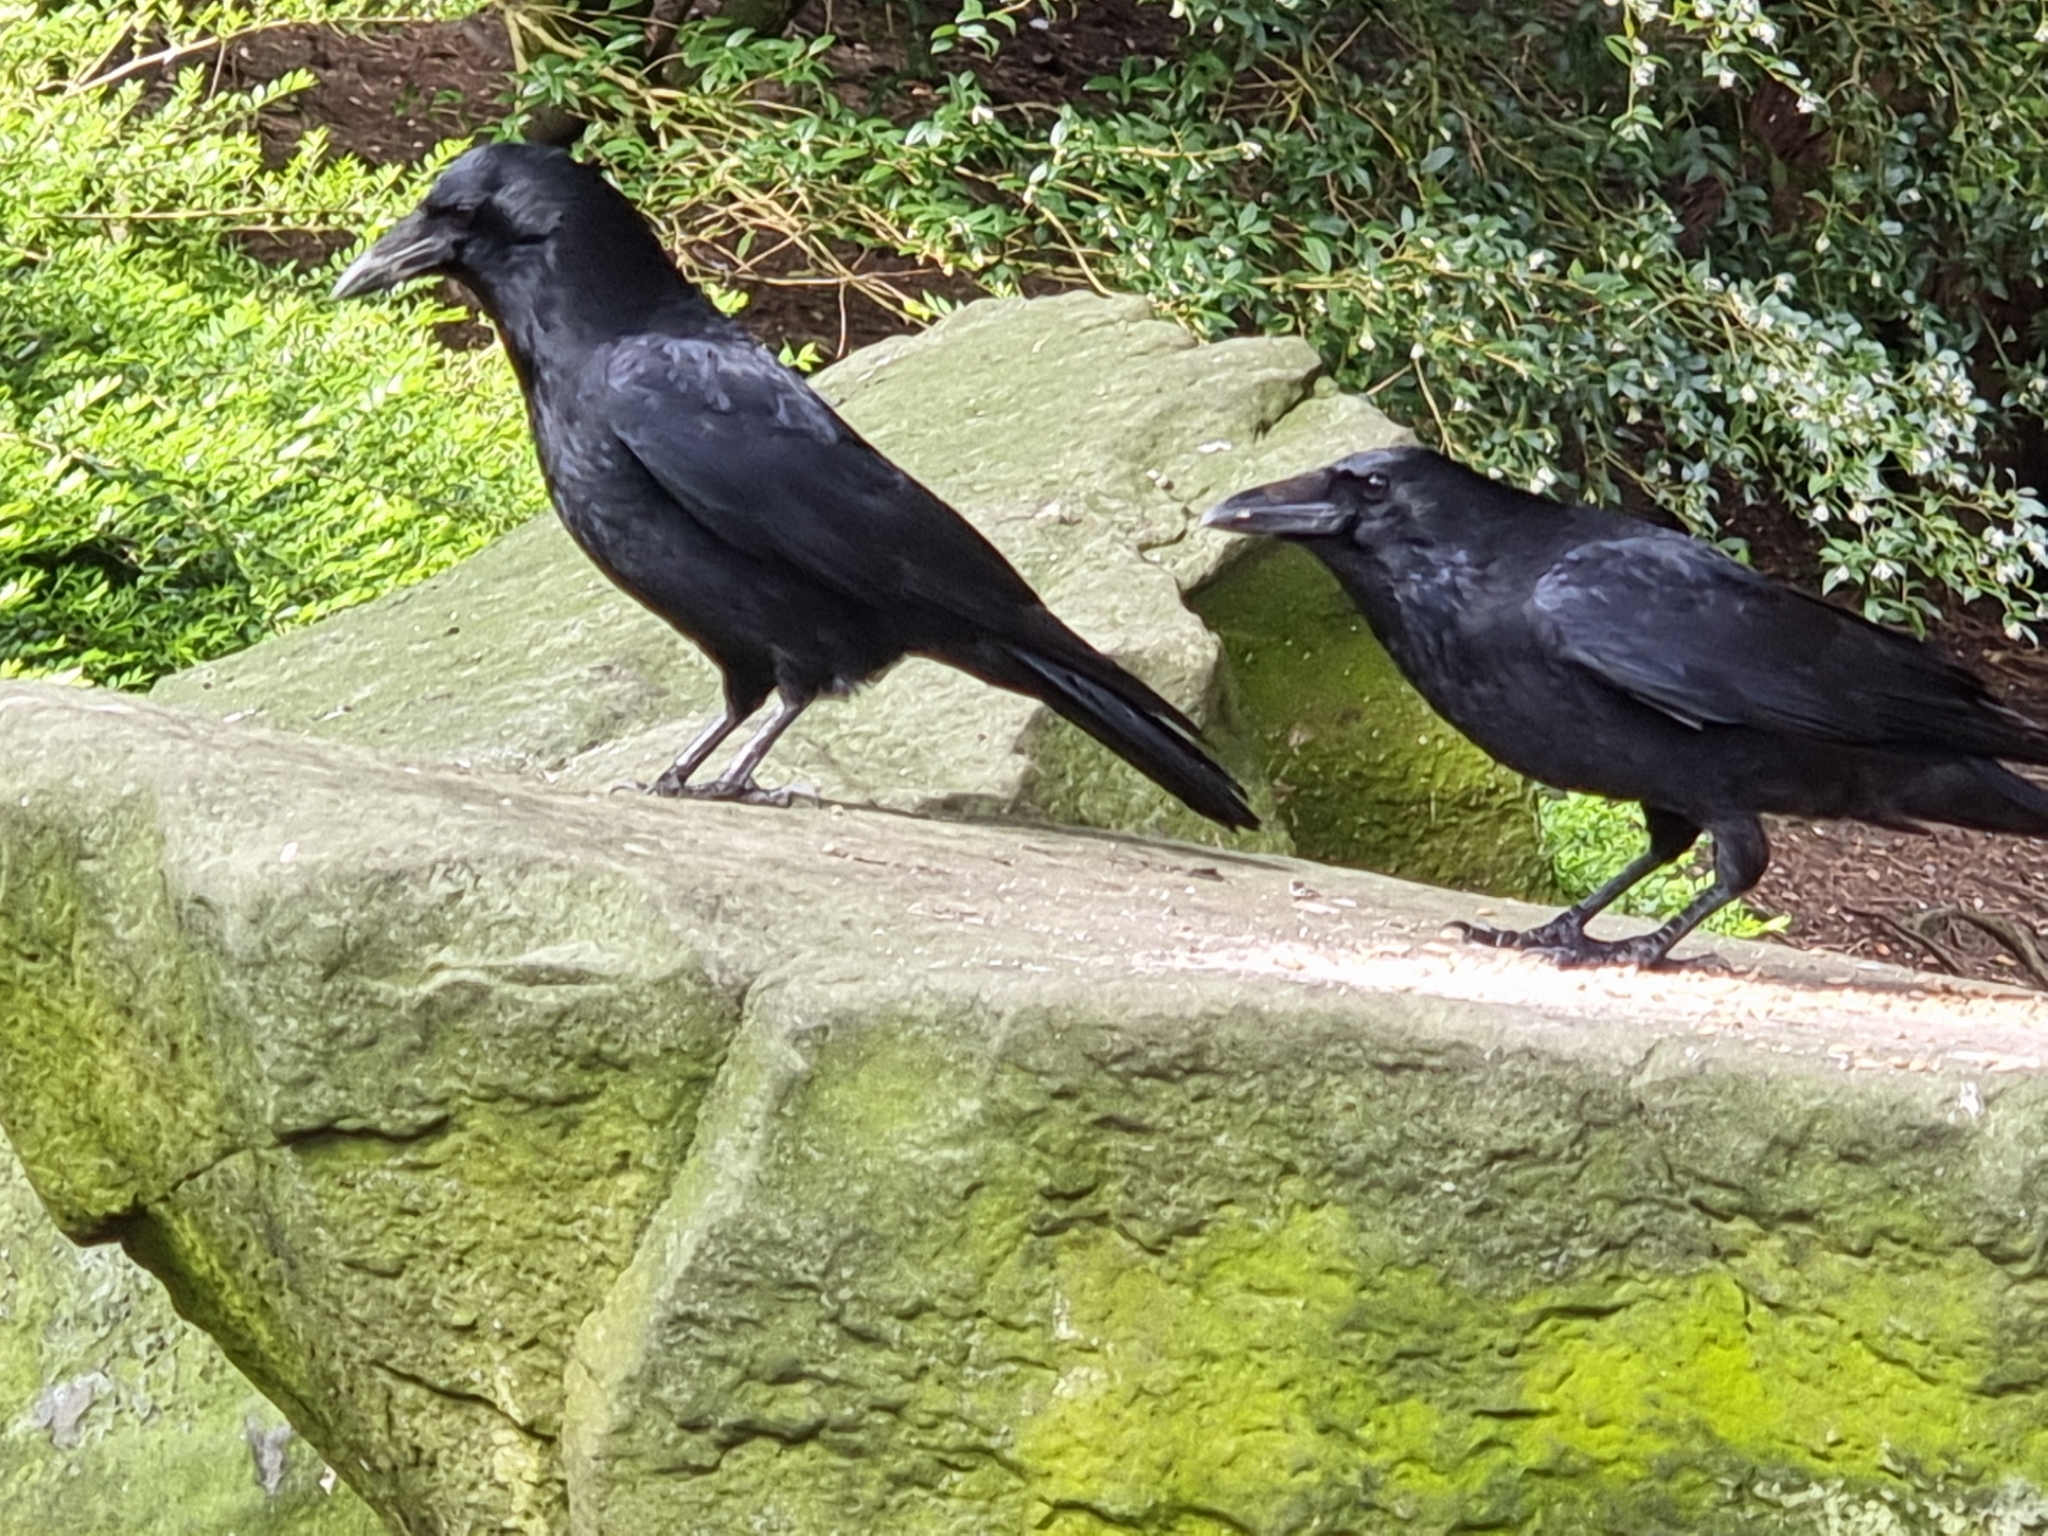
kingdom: Animalia
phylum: Chordata
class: Aves
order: Passeriformes
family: Corvidae
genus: Corvus
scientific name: Corvus corone
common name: Carrion crow
